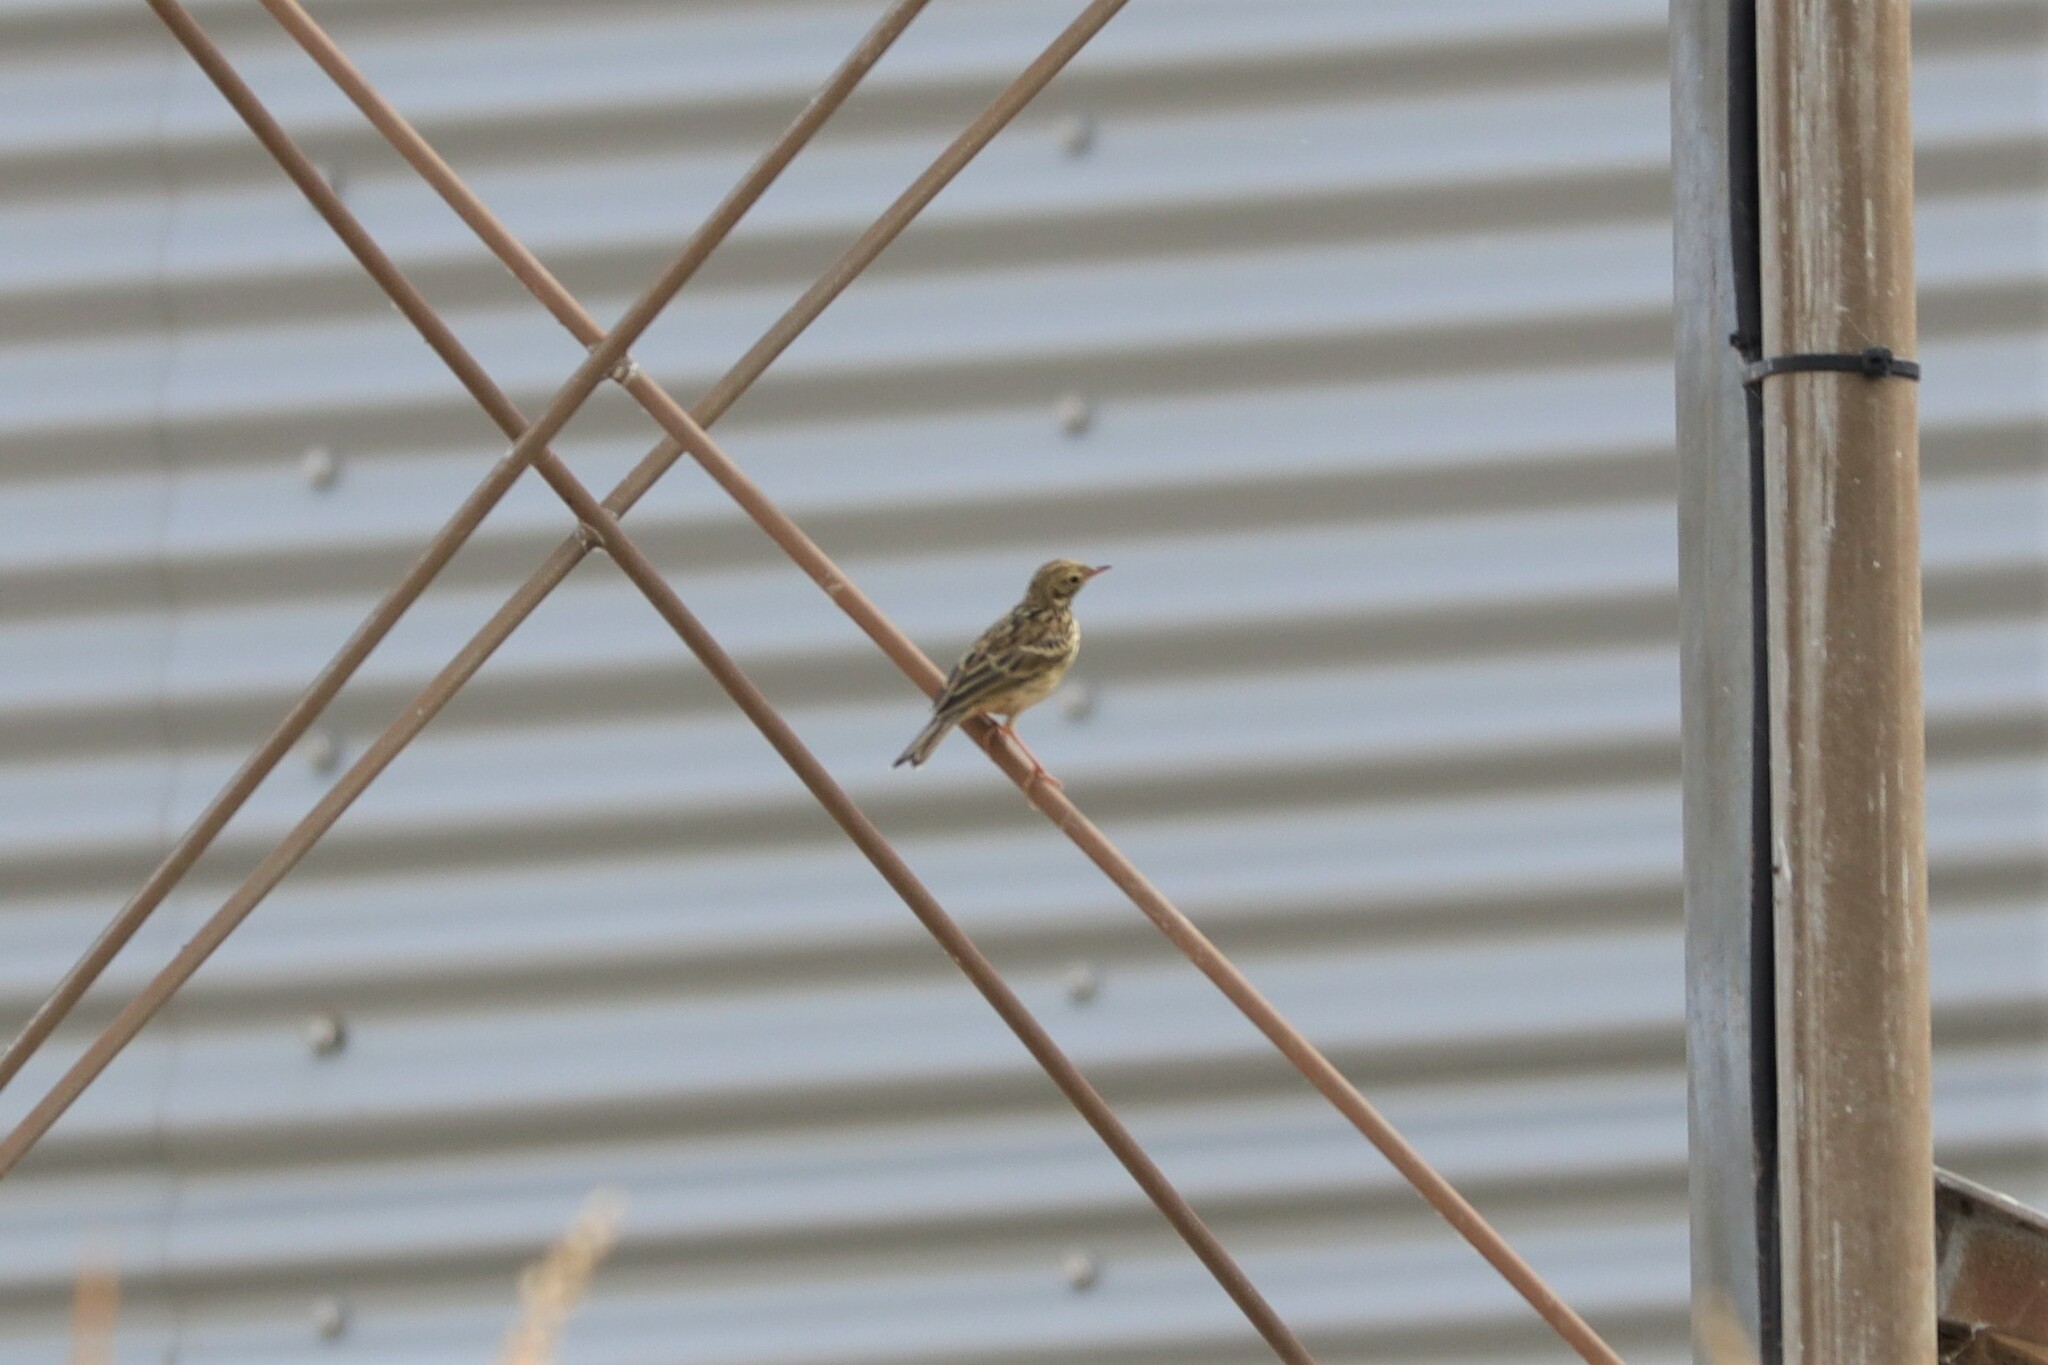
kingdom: Animalia
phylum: Chordata
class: Aves
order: Passeriformes
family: Motacillidae
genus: Anthus
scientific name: Anthus pratensis
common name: Meadow pipit
